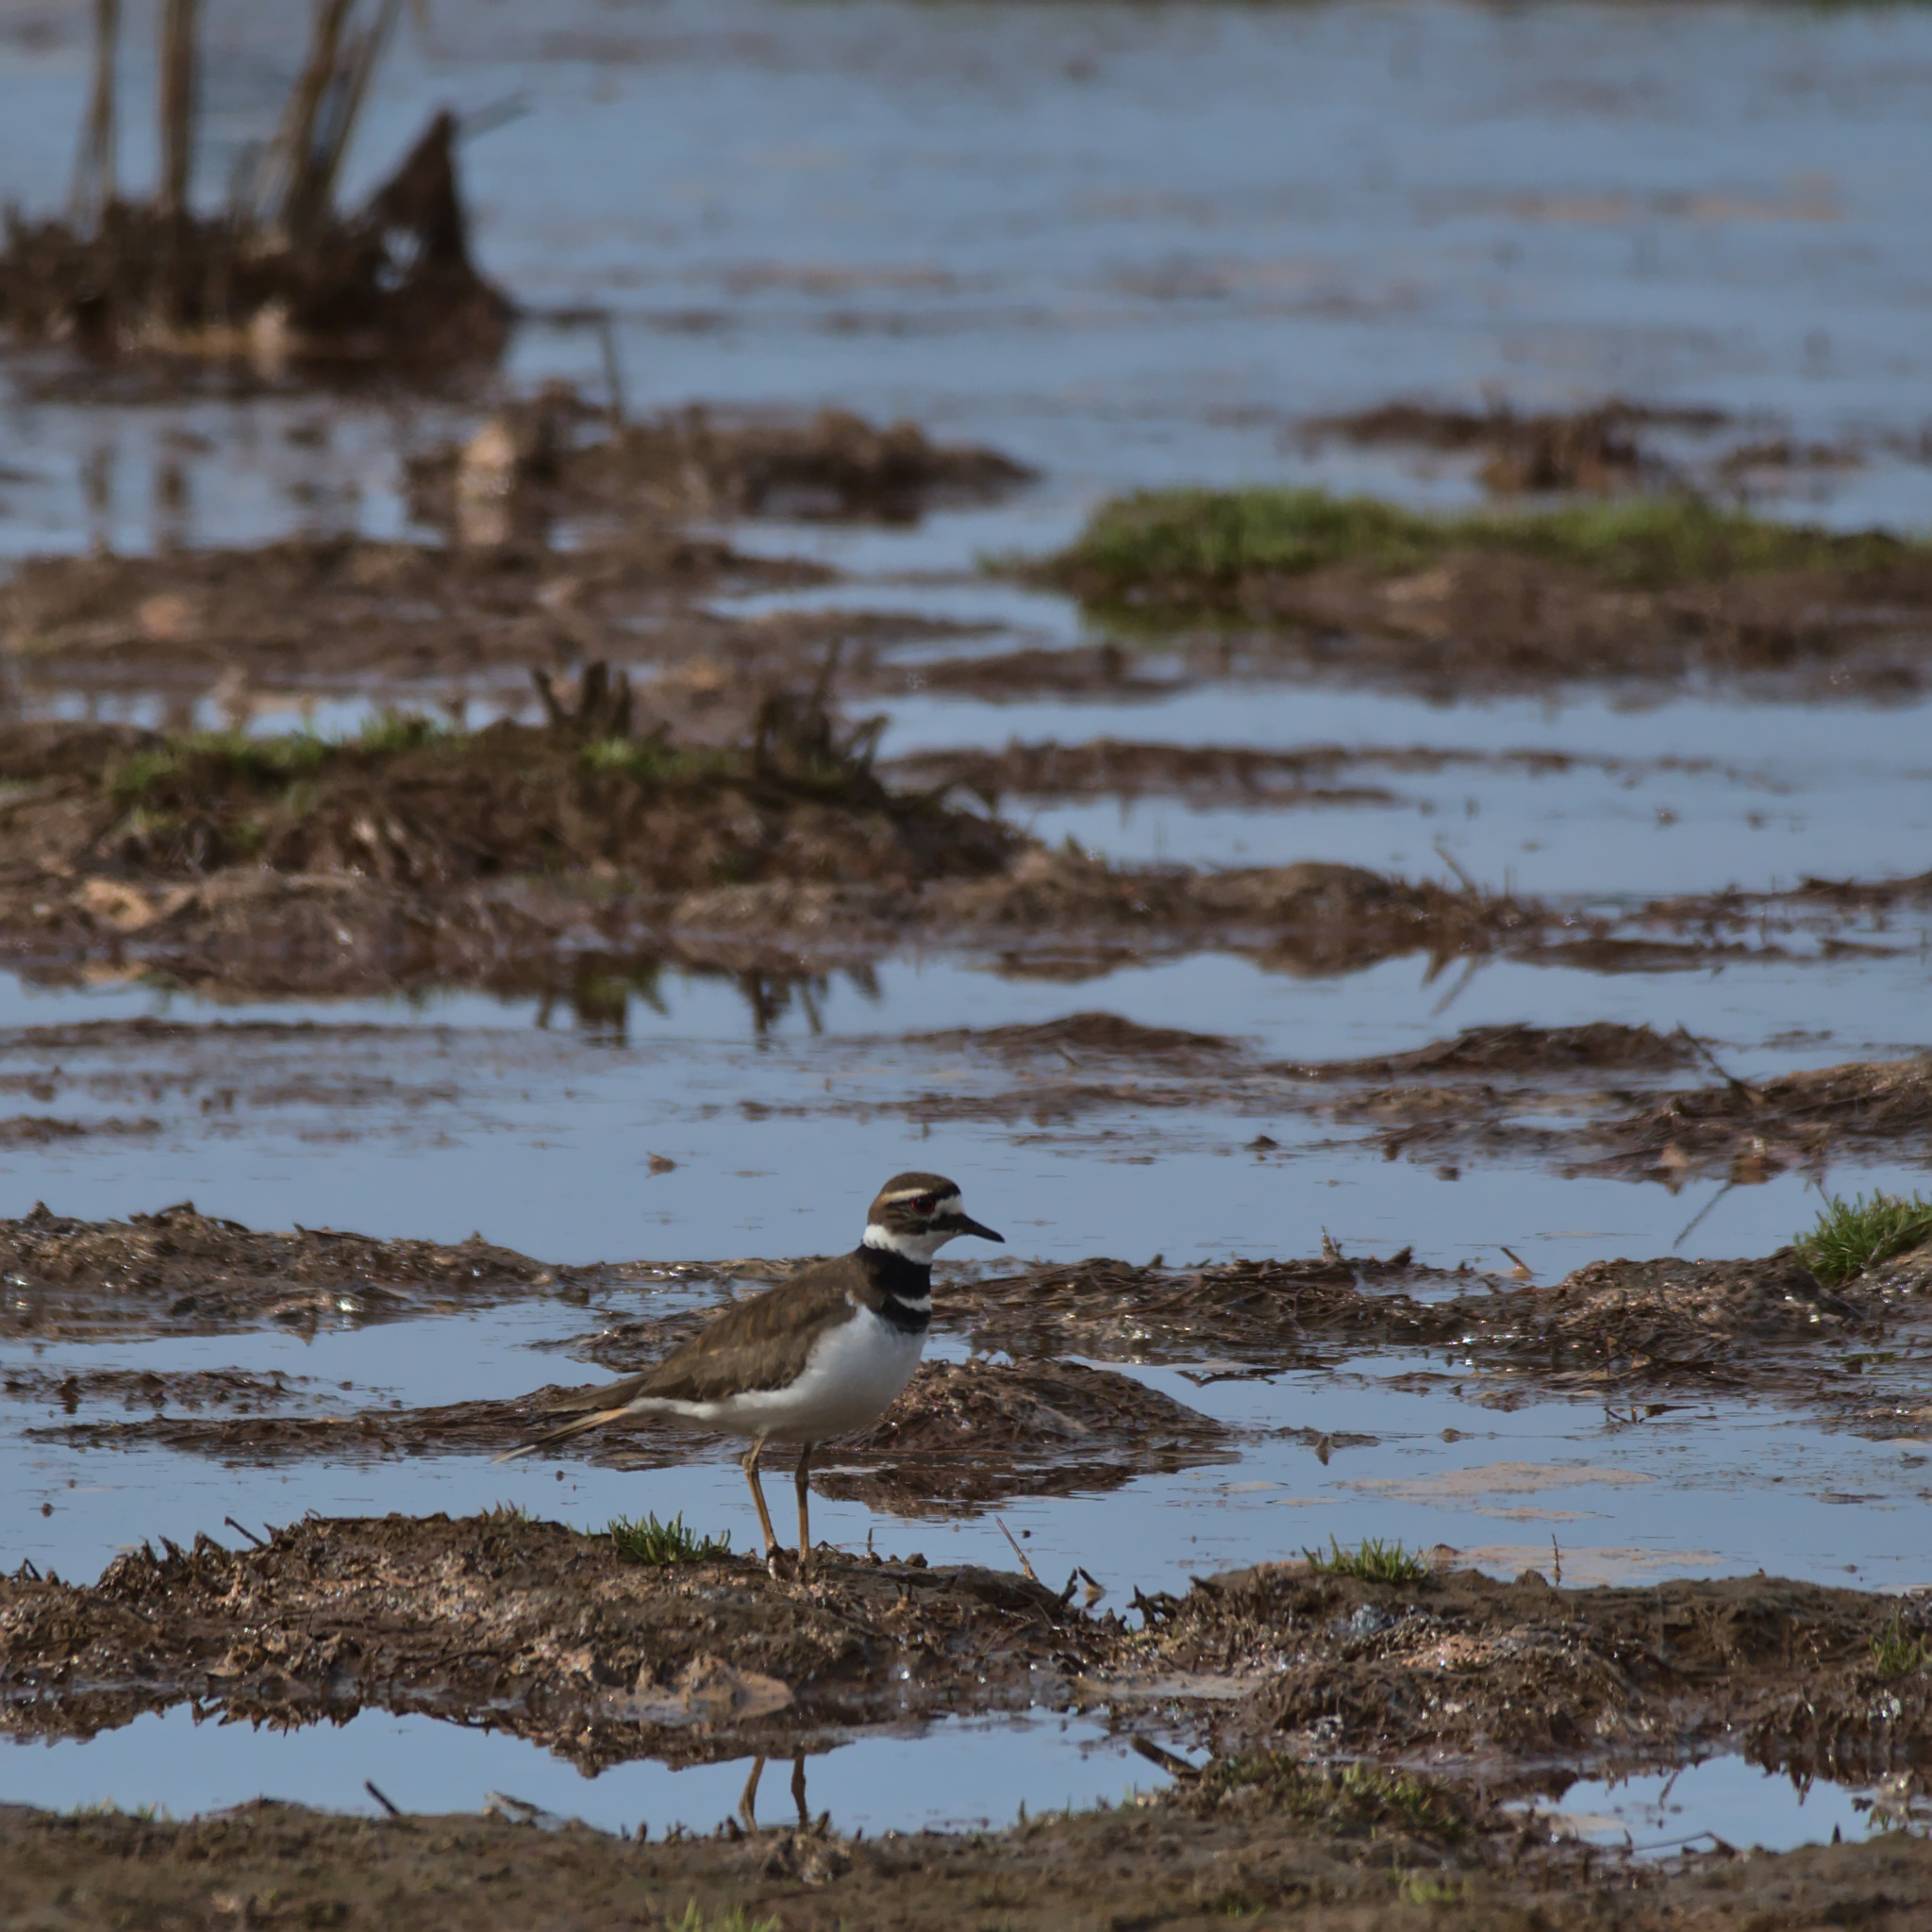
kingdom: Animalia
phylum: Chordata
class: Aves
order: Charadriiformes
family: Charadriidae
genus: Charadrius
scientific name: Charadrius vociferus
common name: Killdeer
